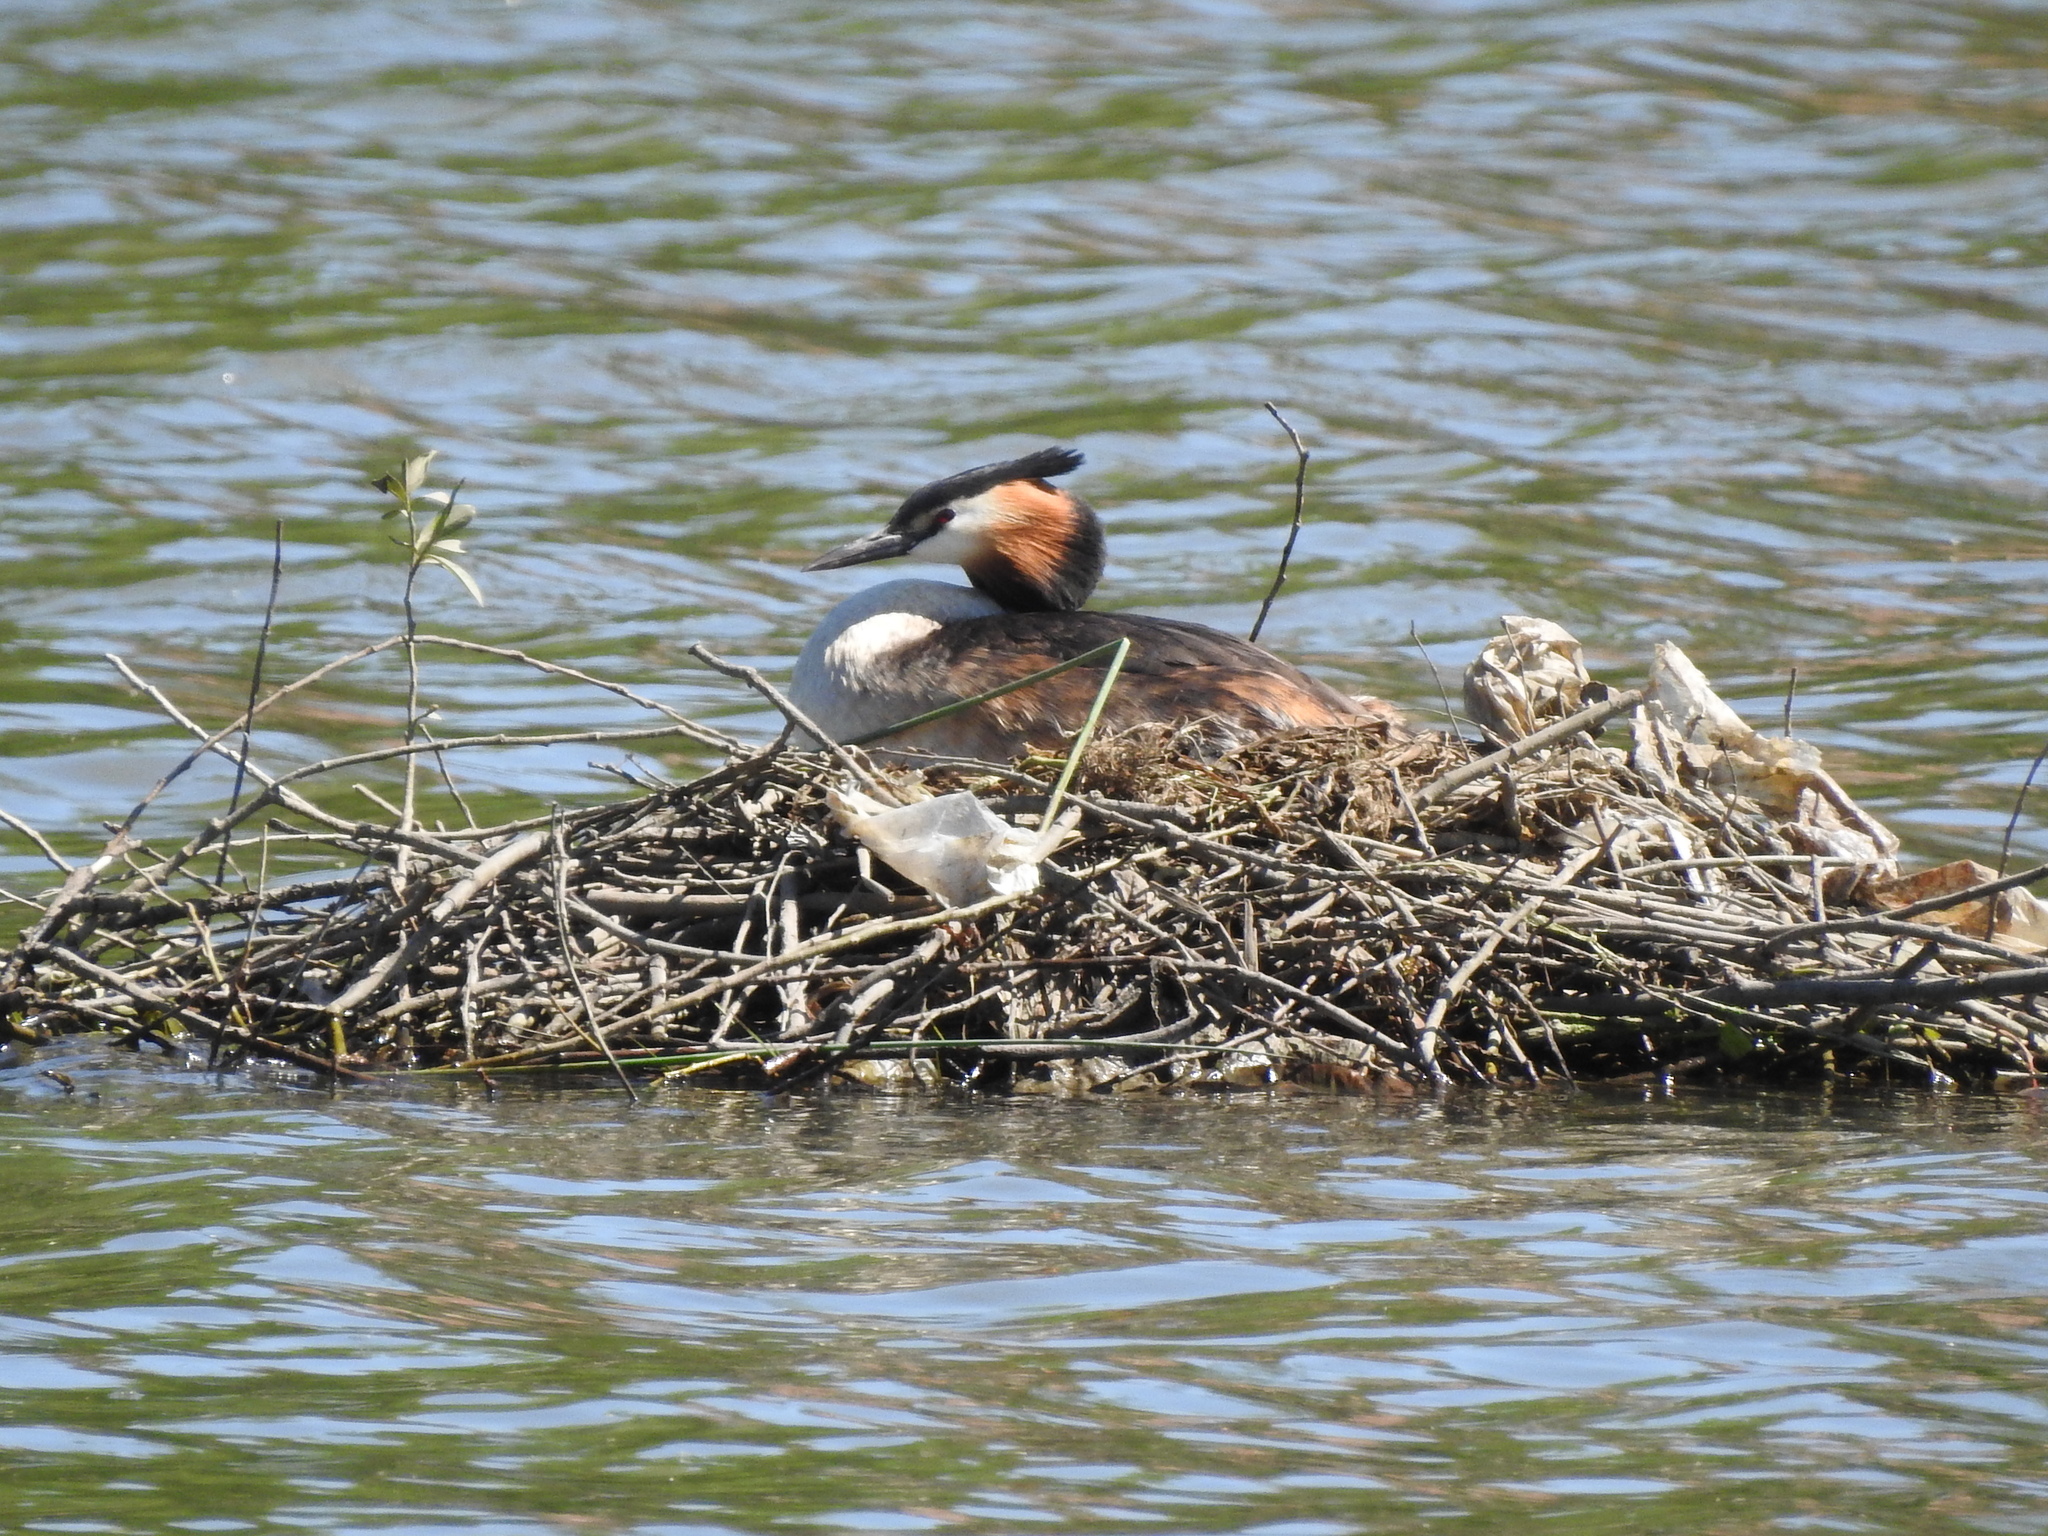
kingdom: Animalia
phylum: Chordata
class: Aves
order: Podicipediformes
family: Podicipedidae
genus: Podiceps
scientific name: Podiceps cristatus
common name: Great crested grebe
